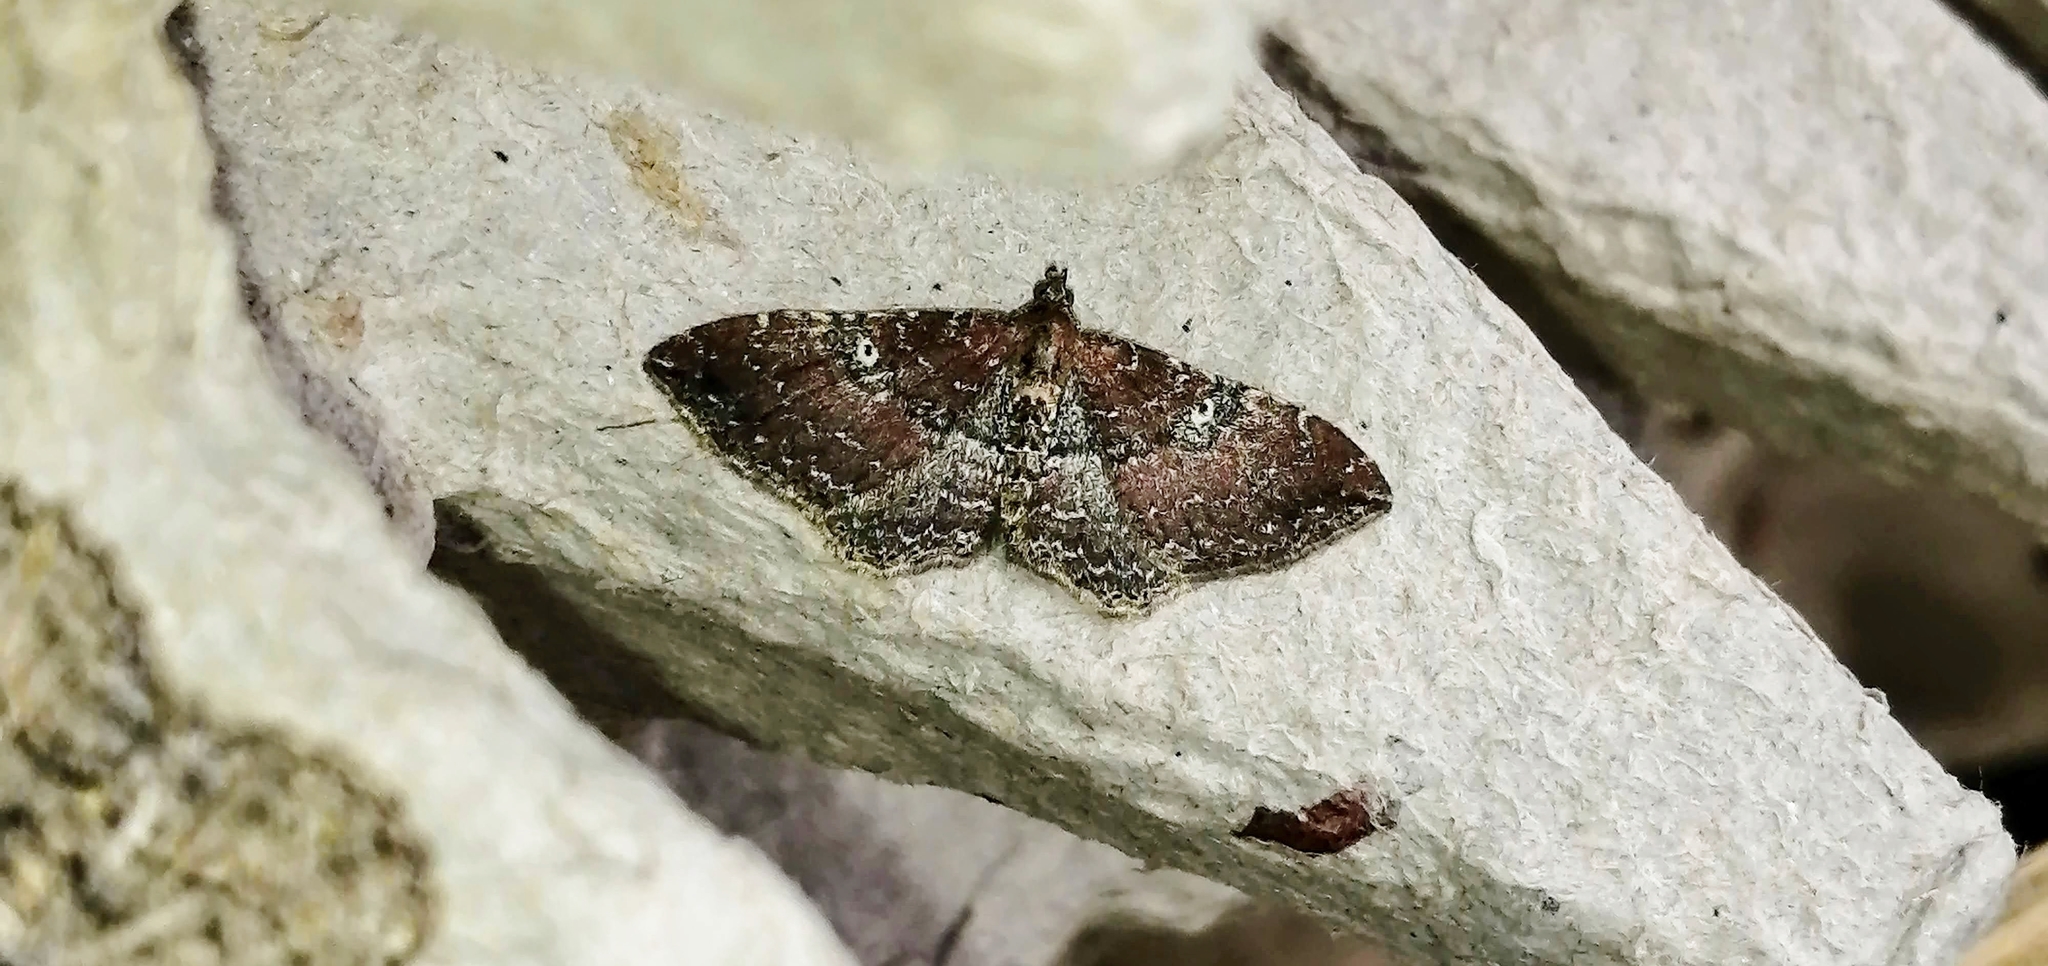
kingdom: Animalia
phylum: Arthropoda
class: Insecta
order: Lepidoptera
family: Geometridae
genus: Orthonama
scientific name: Orthonama obstipata
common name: The gem
